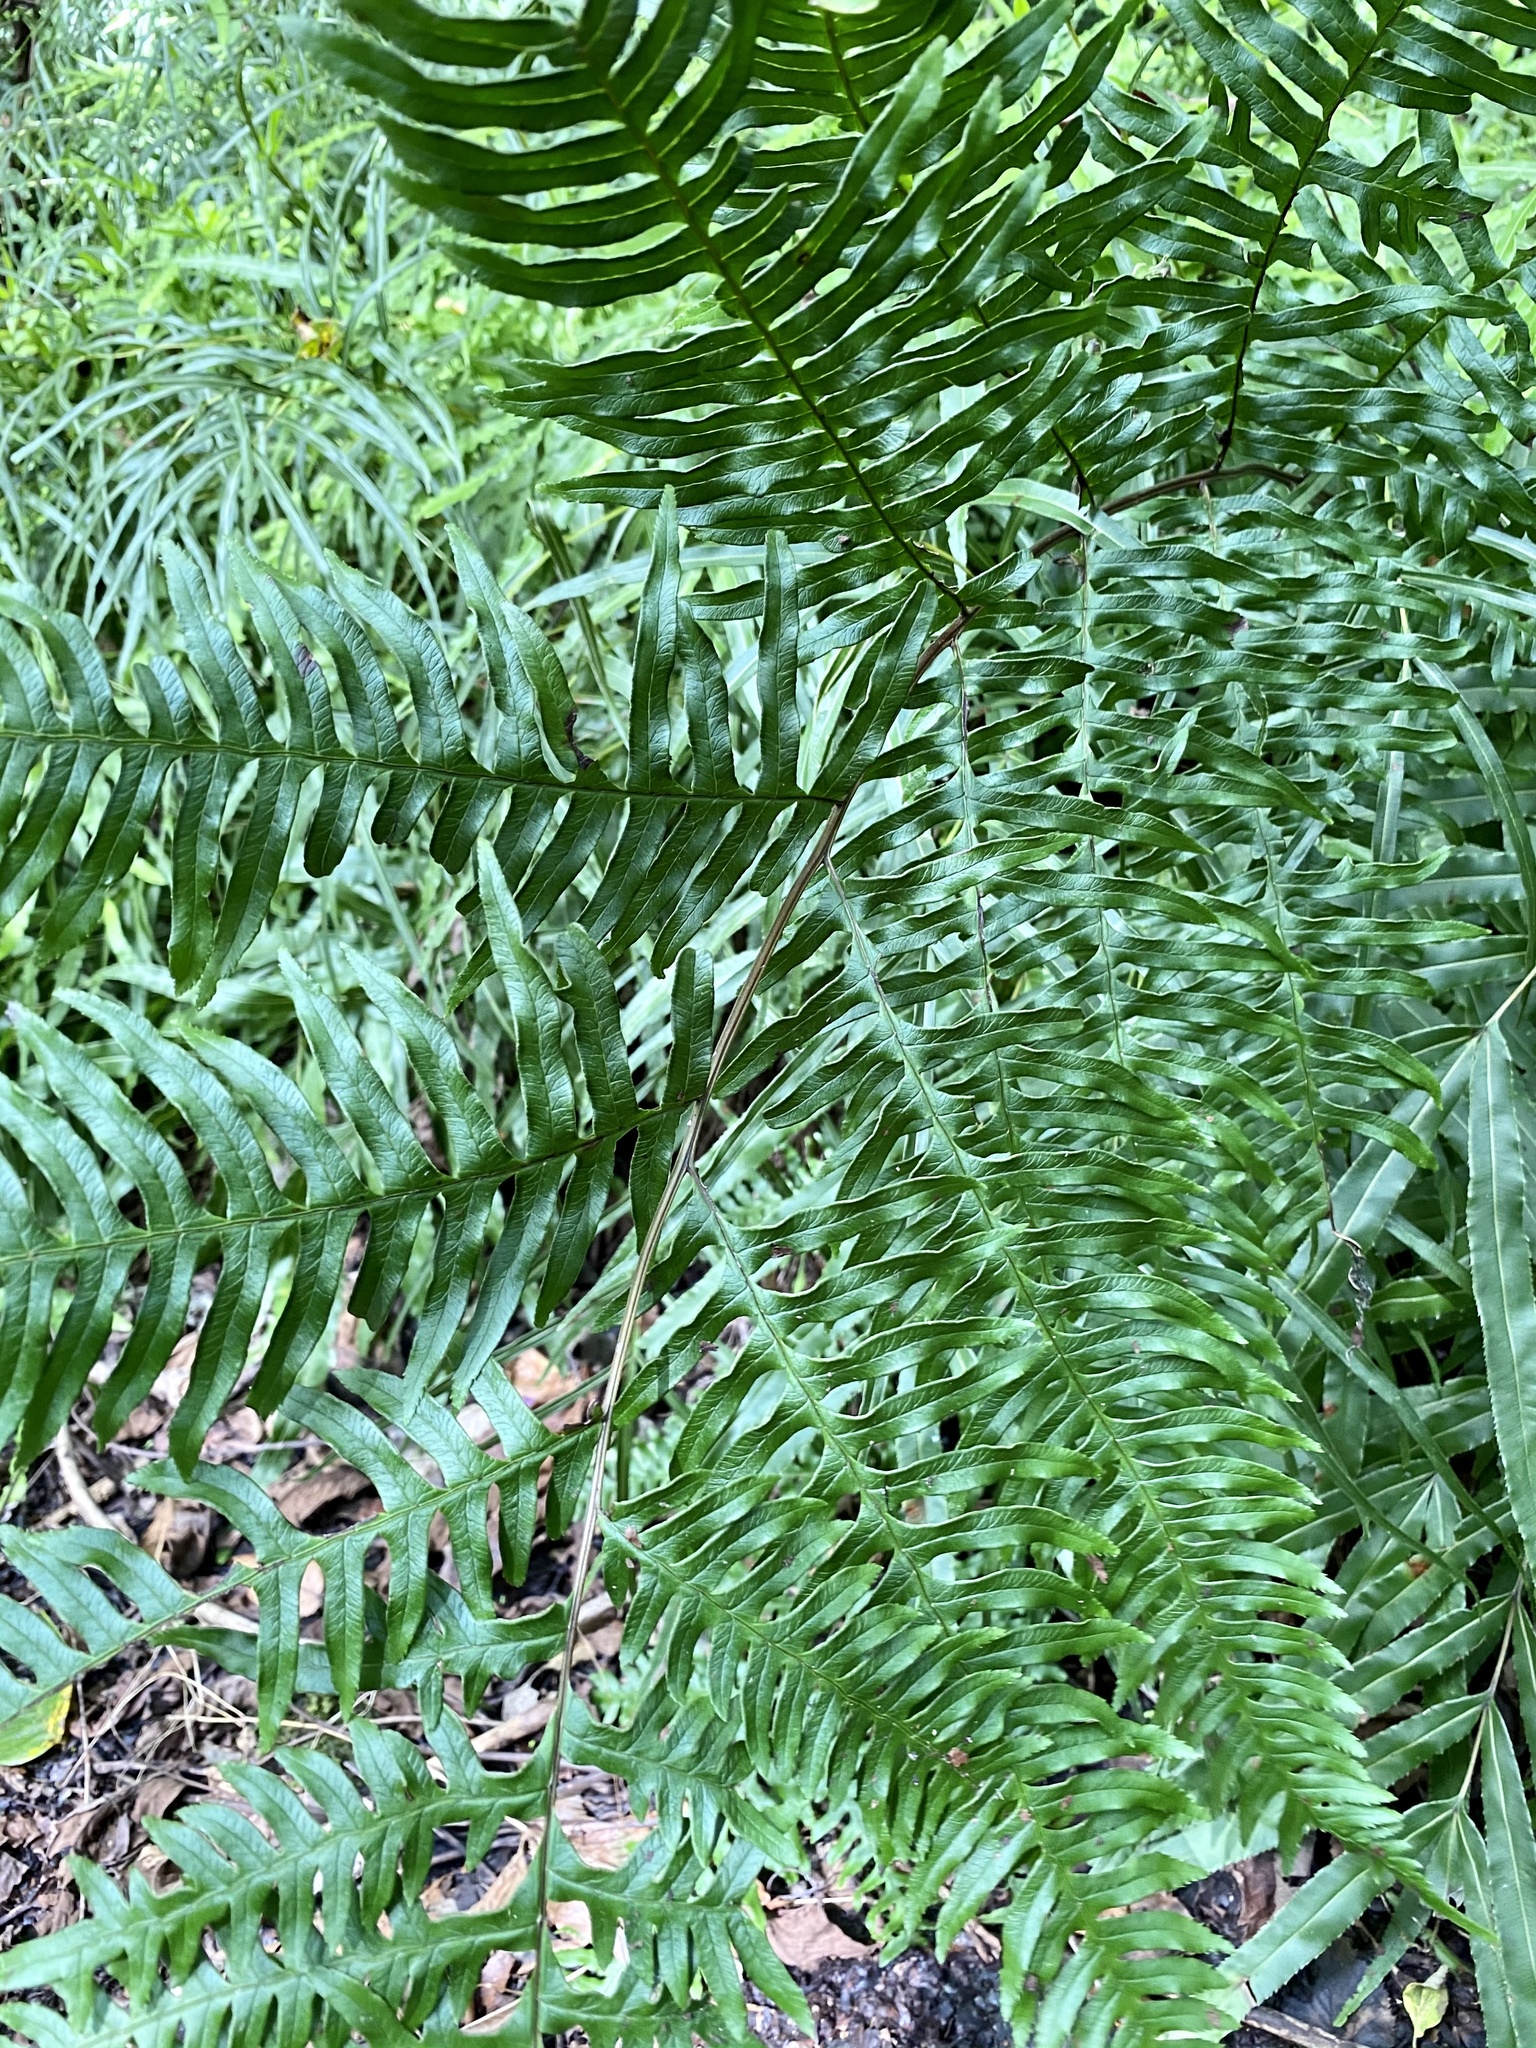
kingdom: Plantae
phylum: Tracheophyta
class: Polypodiopsida
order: Polypodiales
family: Pteridaceae
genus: Pteris
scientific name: Pteris terminalis
